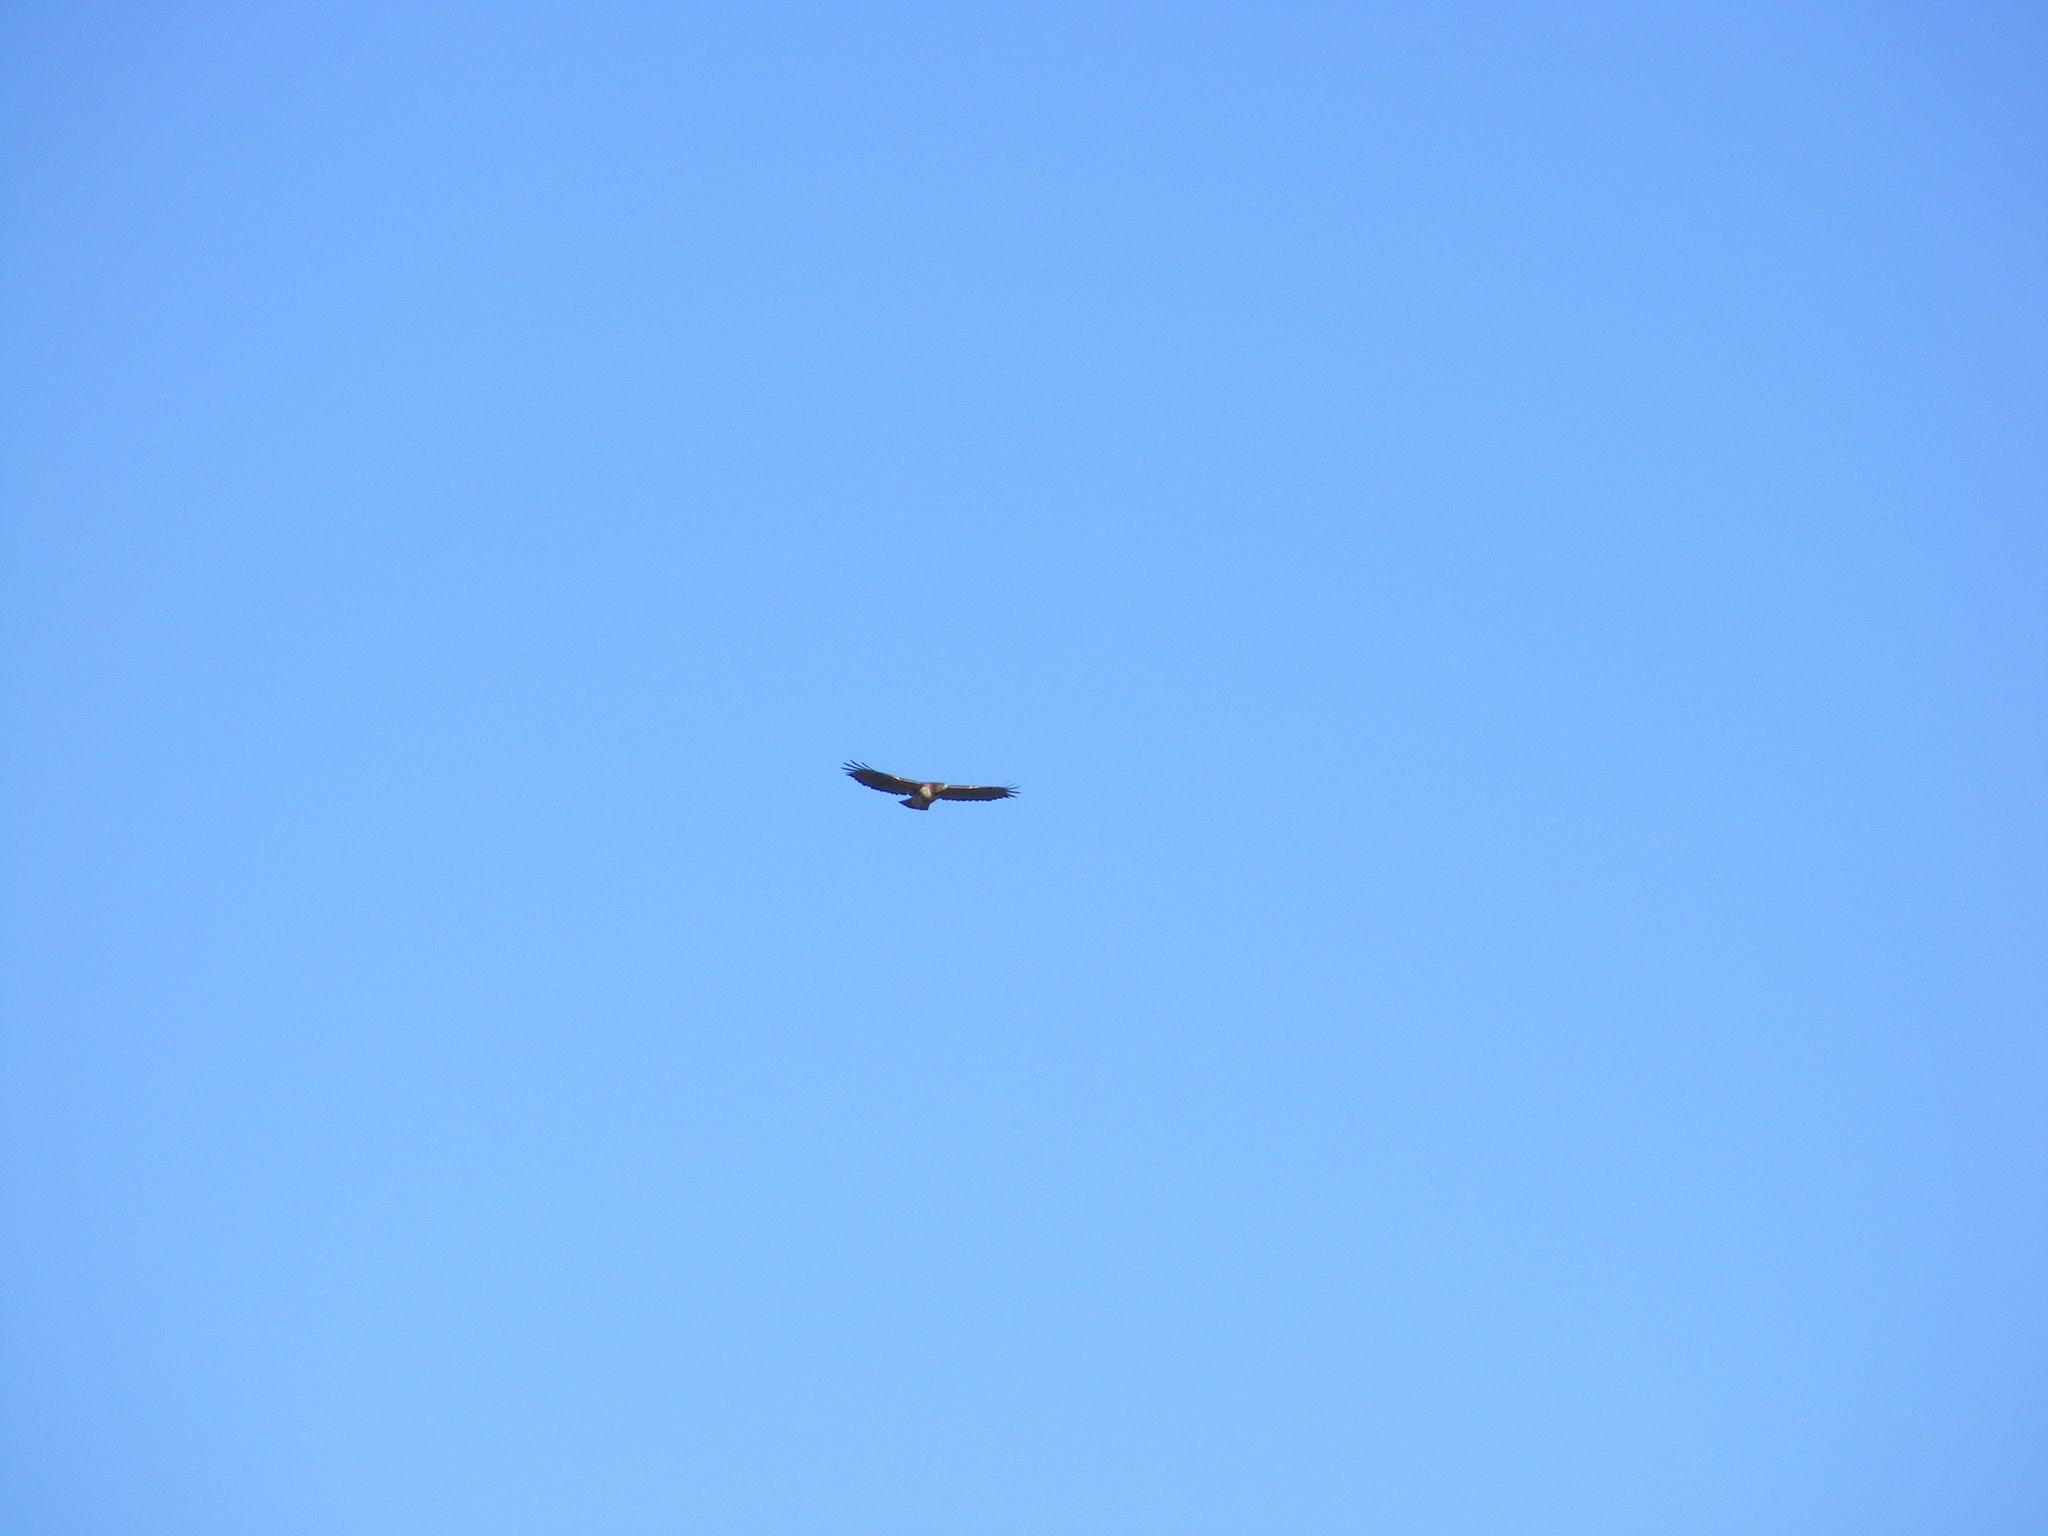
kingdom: Animalia
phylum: Chordata
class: Aves
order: Accipitriformes
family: Accipitridae
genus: Buteo
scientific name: Buteo jamaicensis
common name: Red-tailed hawk
